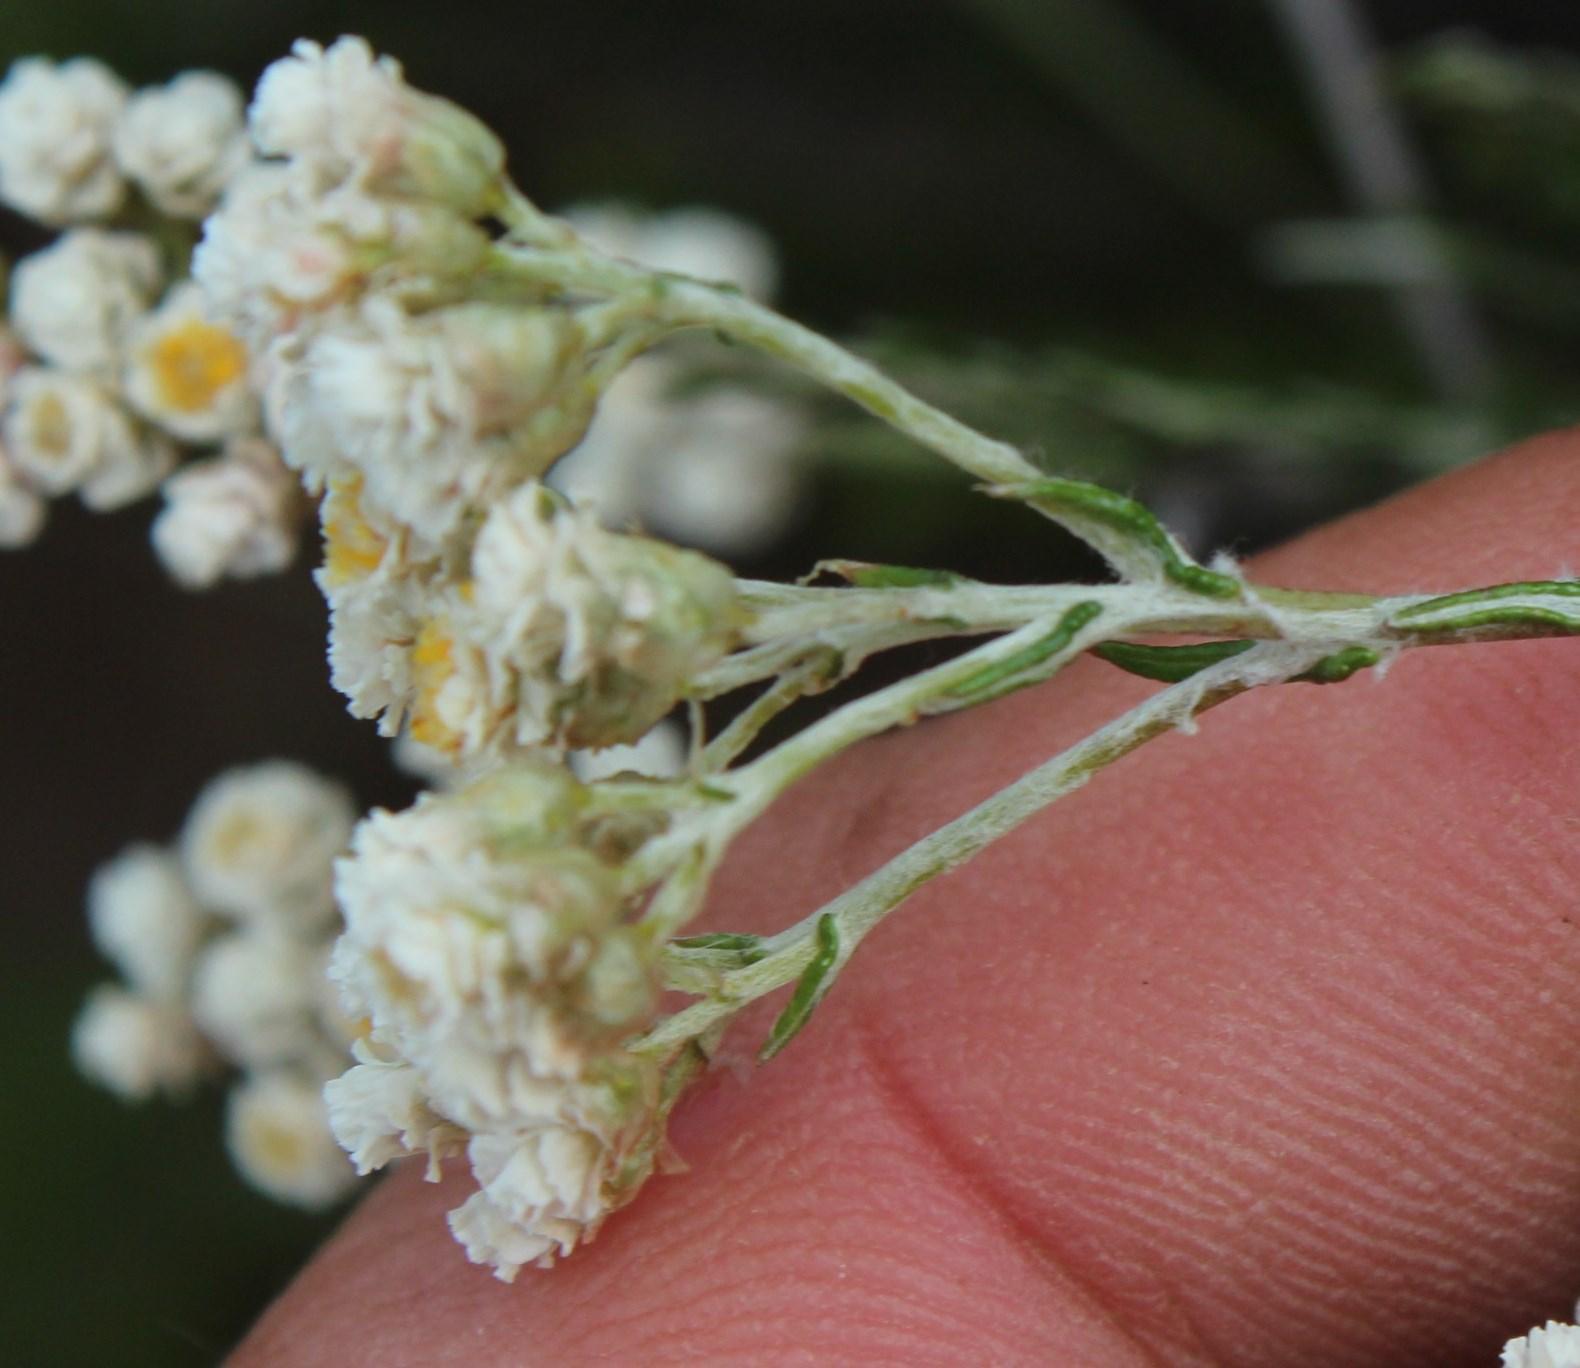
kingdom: Plantae
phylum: Tracheophyta
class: Magnoliopsida
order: Asterales
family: Asteraceae
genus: Helichrysum
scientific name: Helichrysum teretifolium
